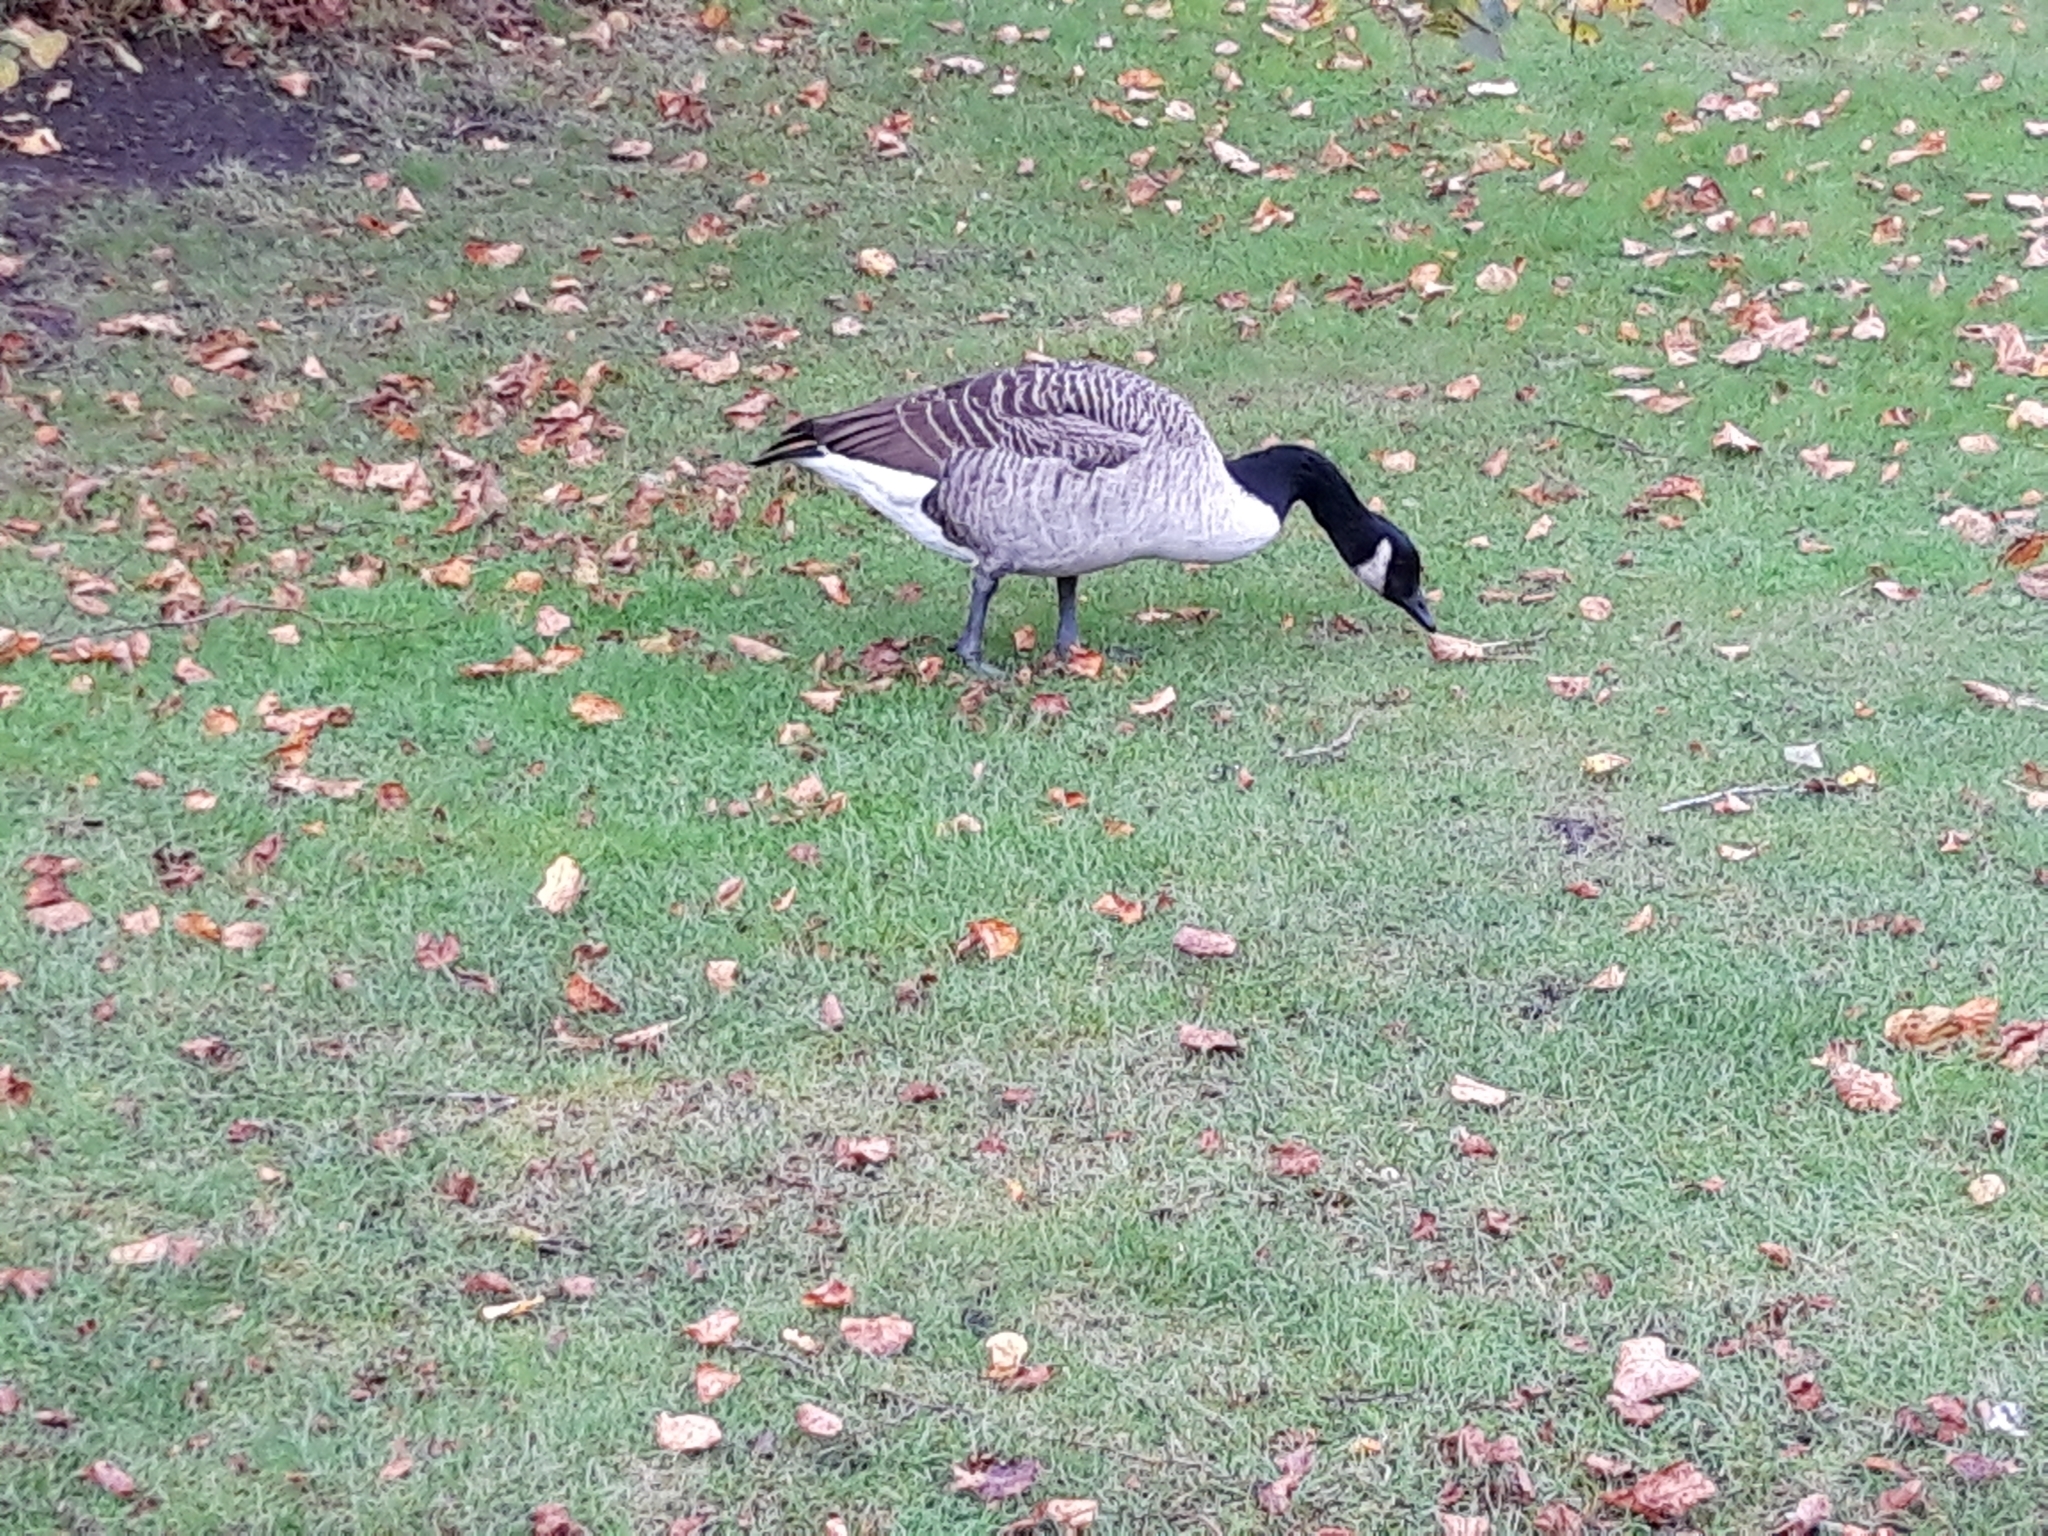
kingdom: Animalia
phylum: Chordata
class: Aves
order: Anseriformes
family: Anatidae
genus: Branta
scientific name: Branta canadensis
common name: Canada goose
